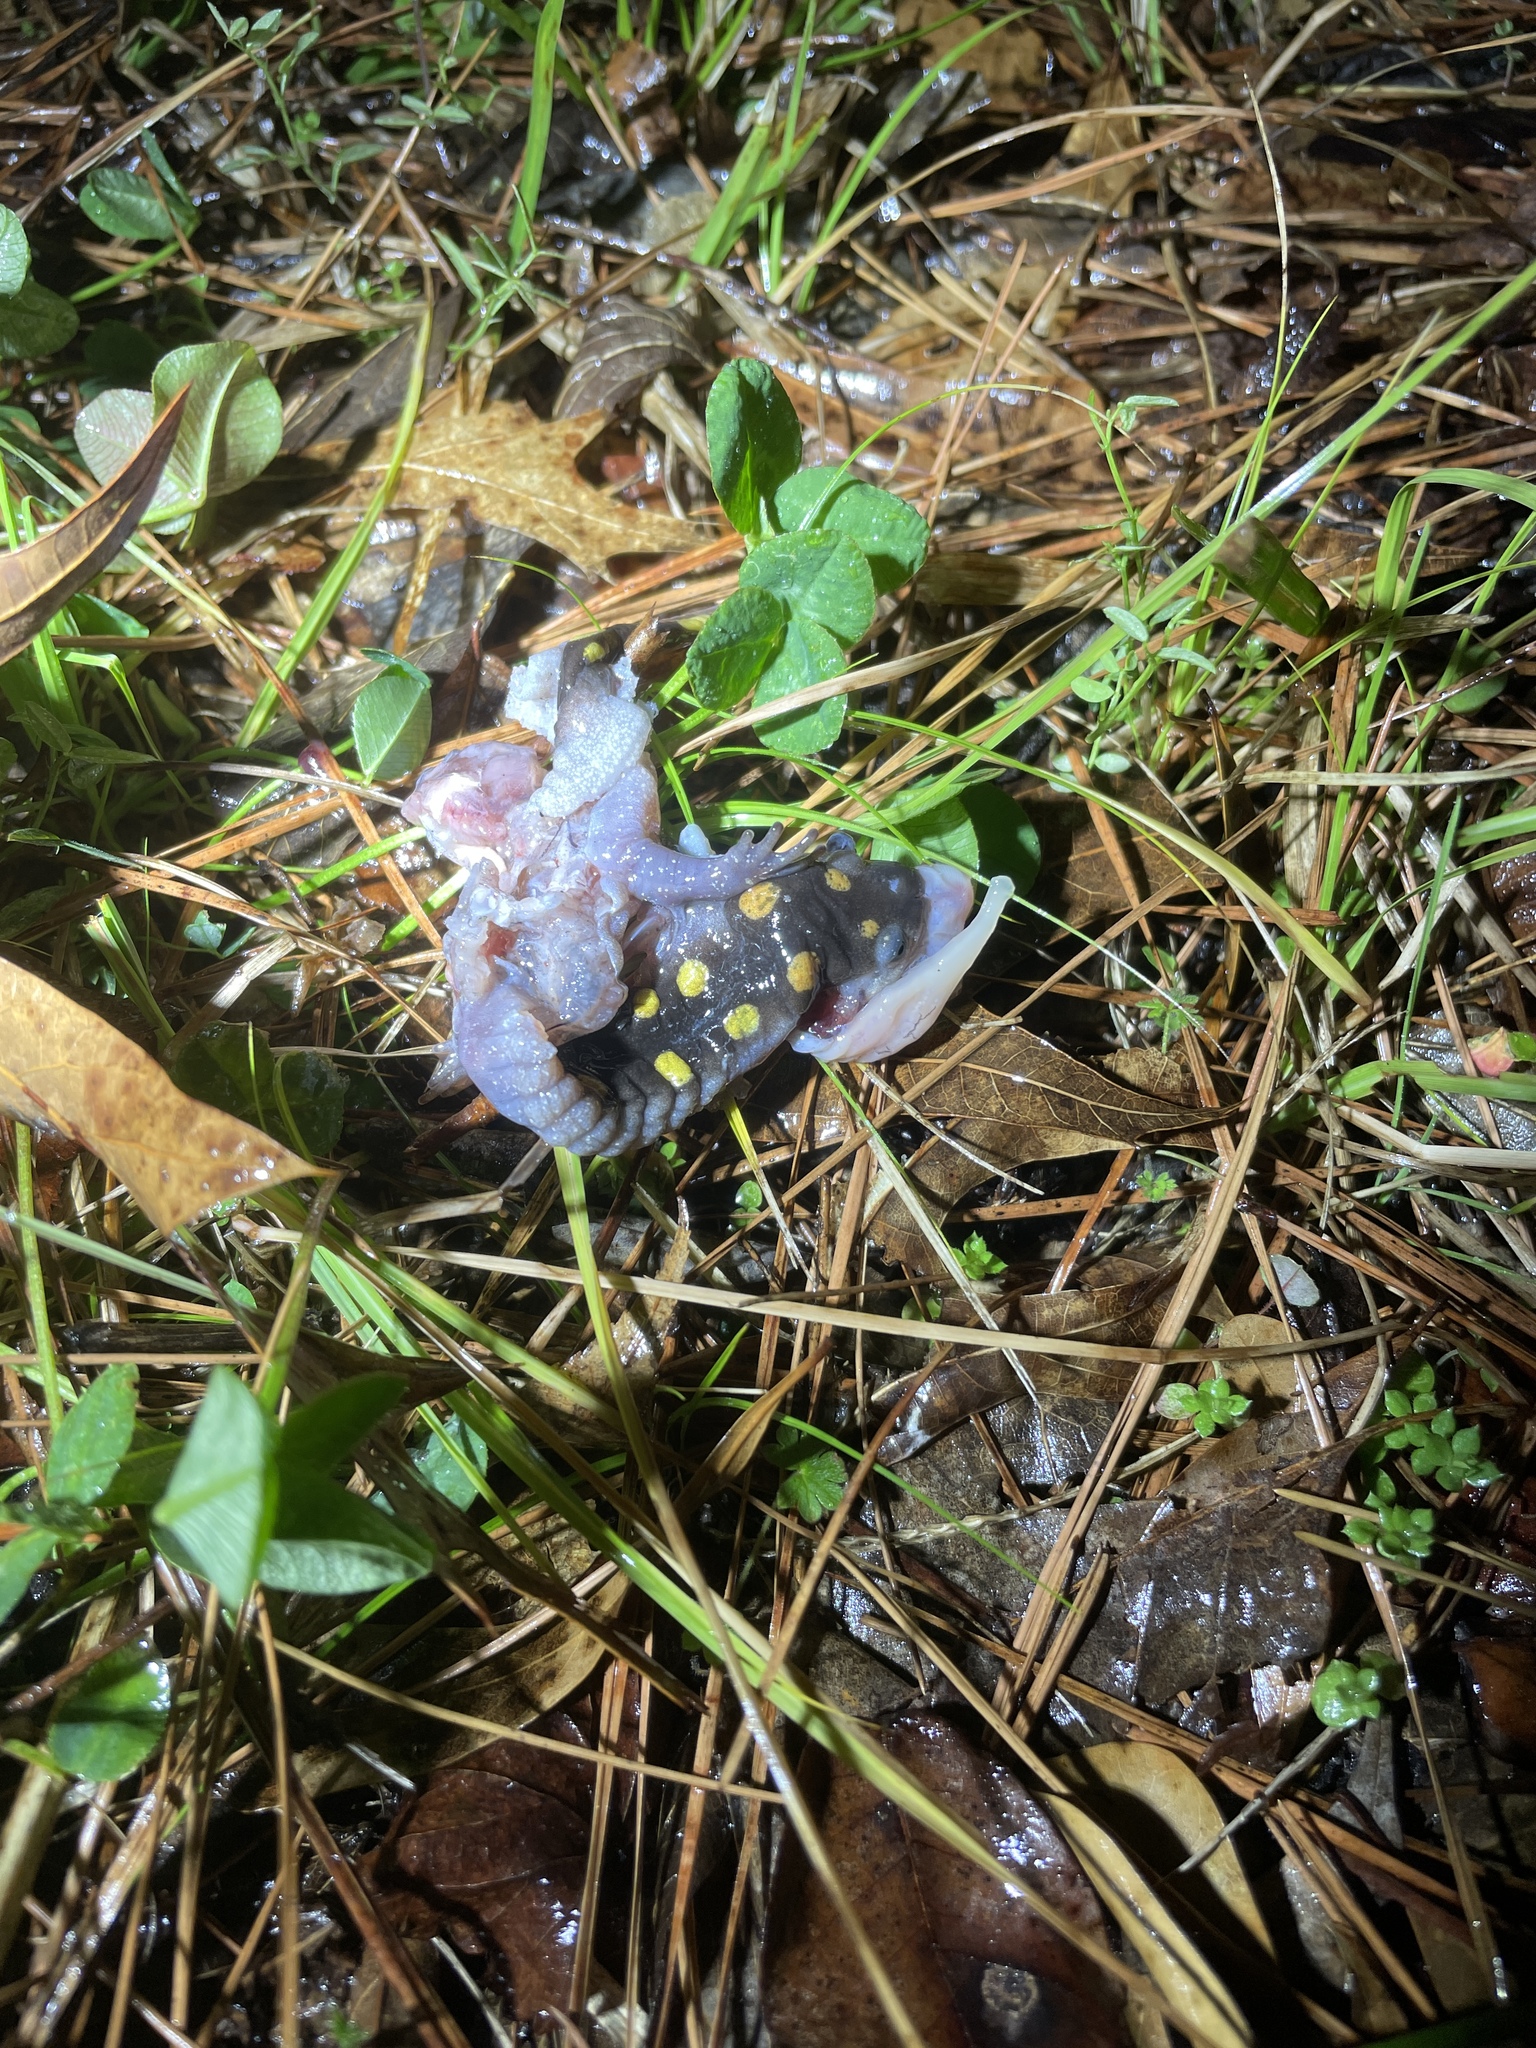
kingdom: Animalia
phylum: Chordata
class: Amphibia
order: Caudata
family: Ambystomatidae
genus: Ambystoma
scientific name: Ambystoma maculatum
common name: Spotted salamander
